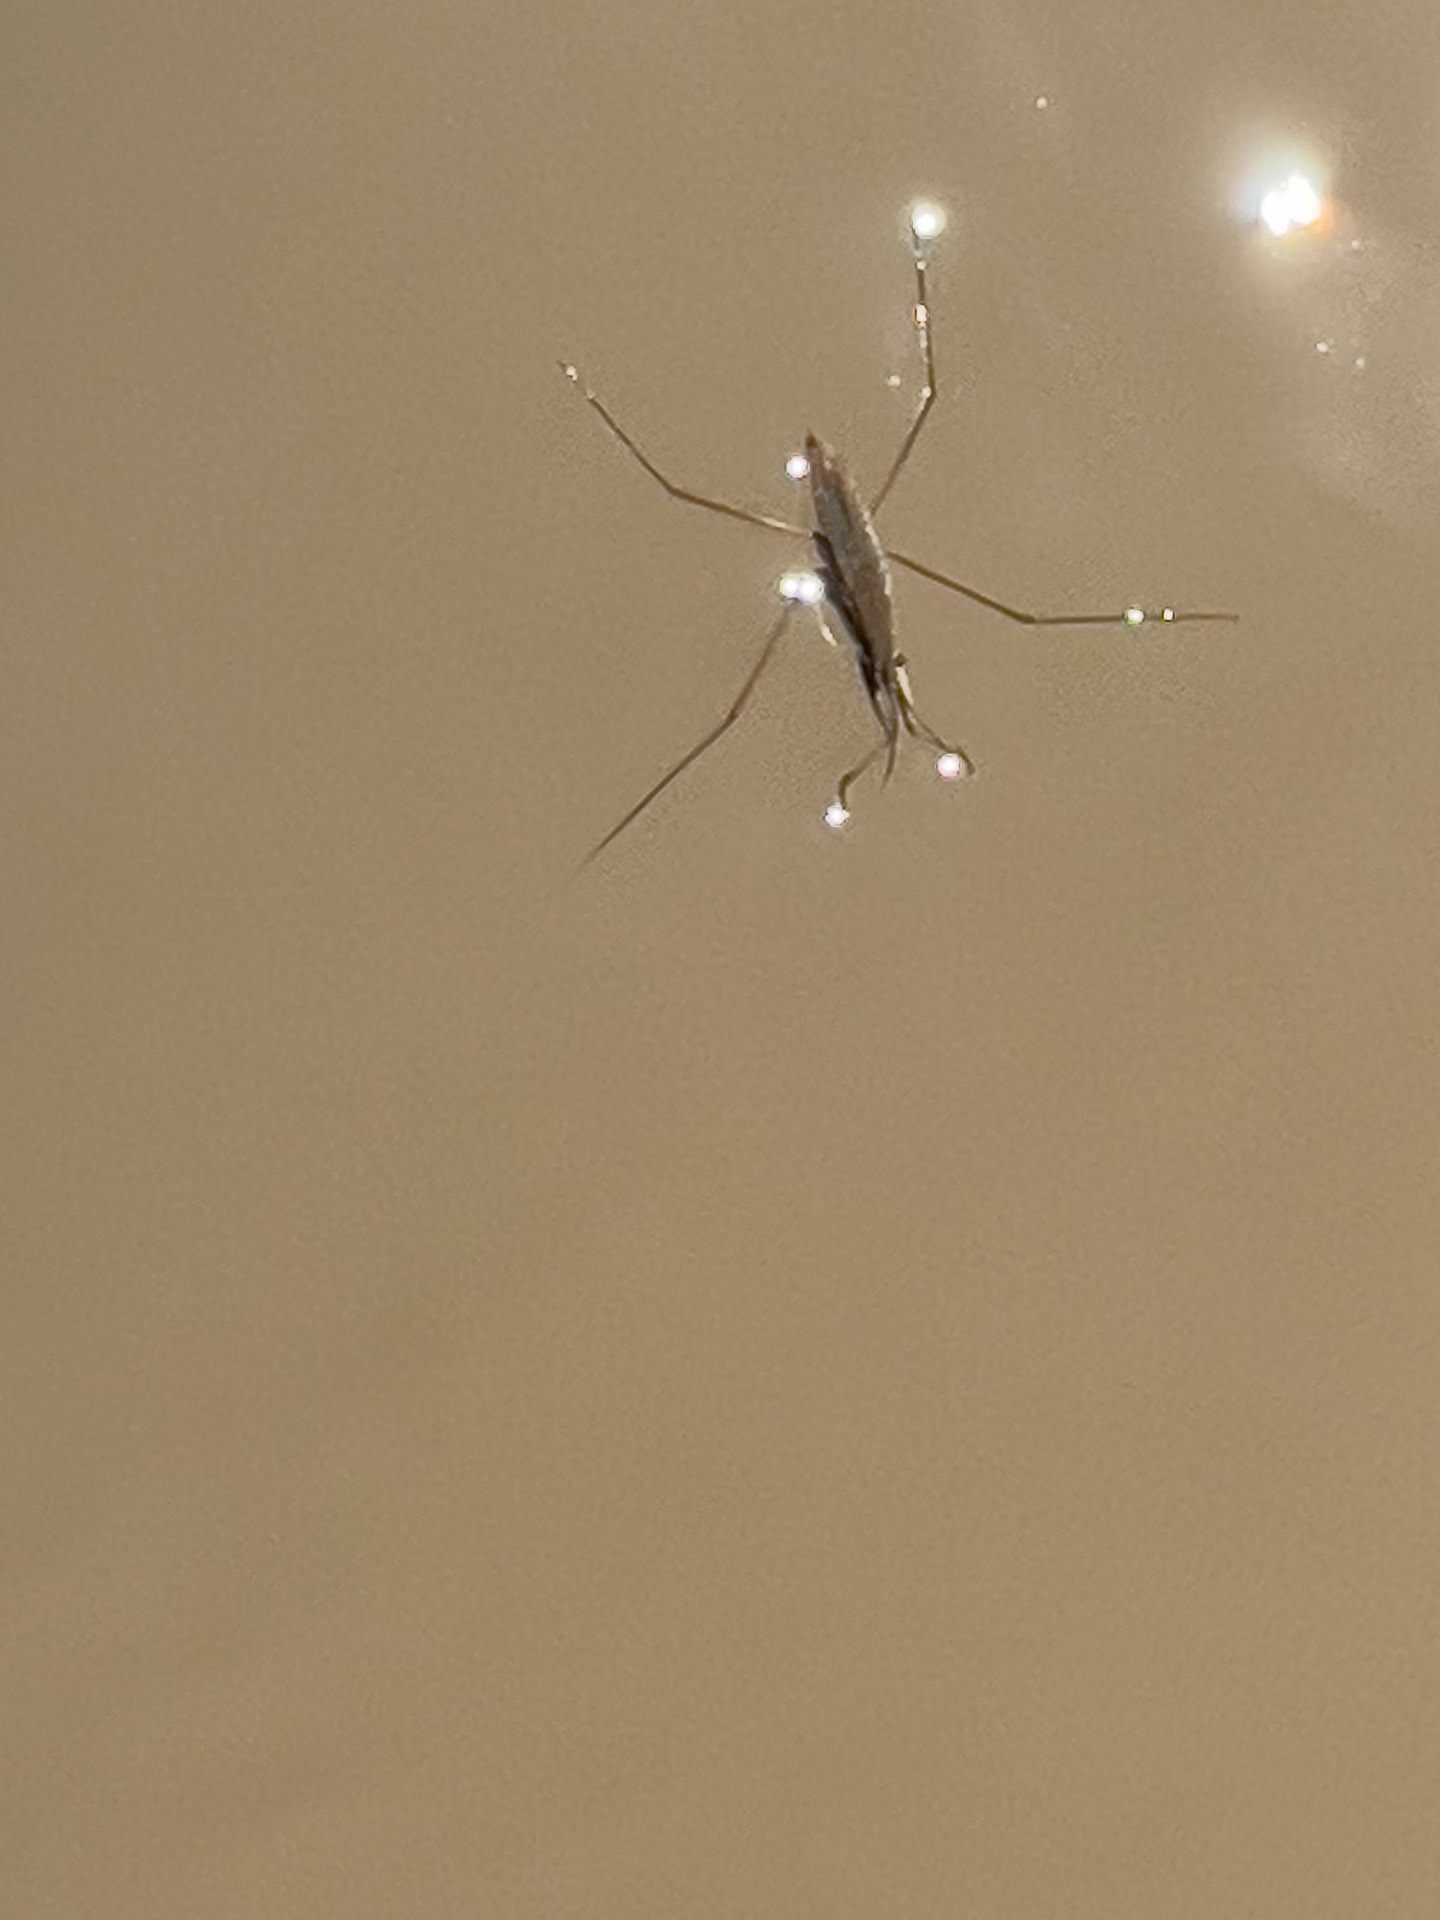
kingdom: Animalia
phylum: Arthropoda
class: Insecta
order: Hemiptera
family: Gerridae
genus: Aquarius
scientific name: Aquarius remigis
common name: Common water strider
